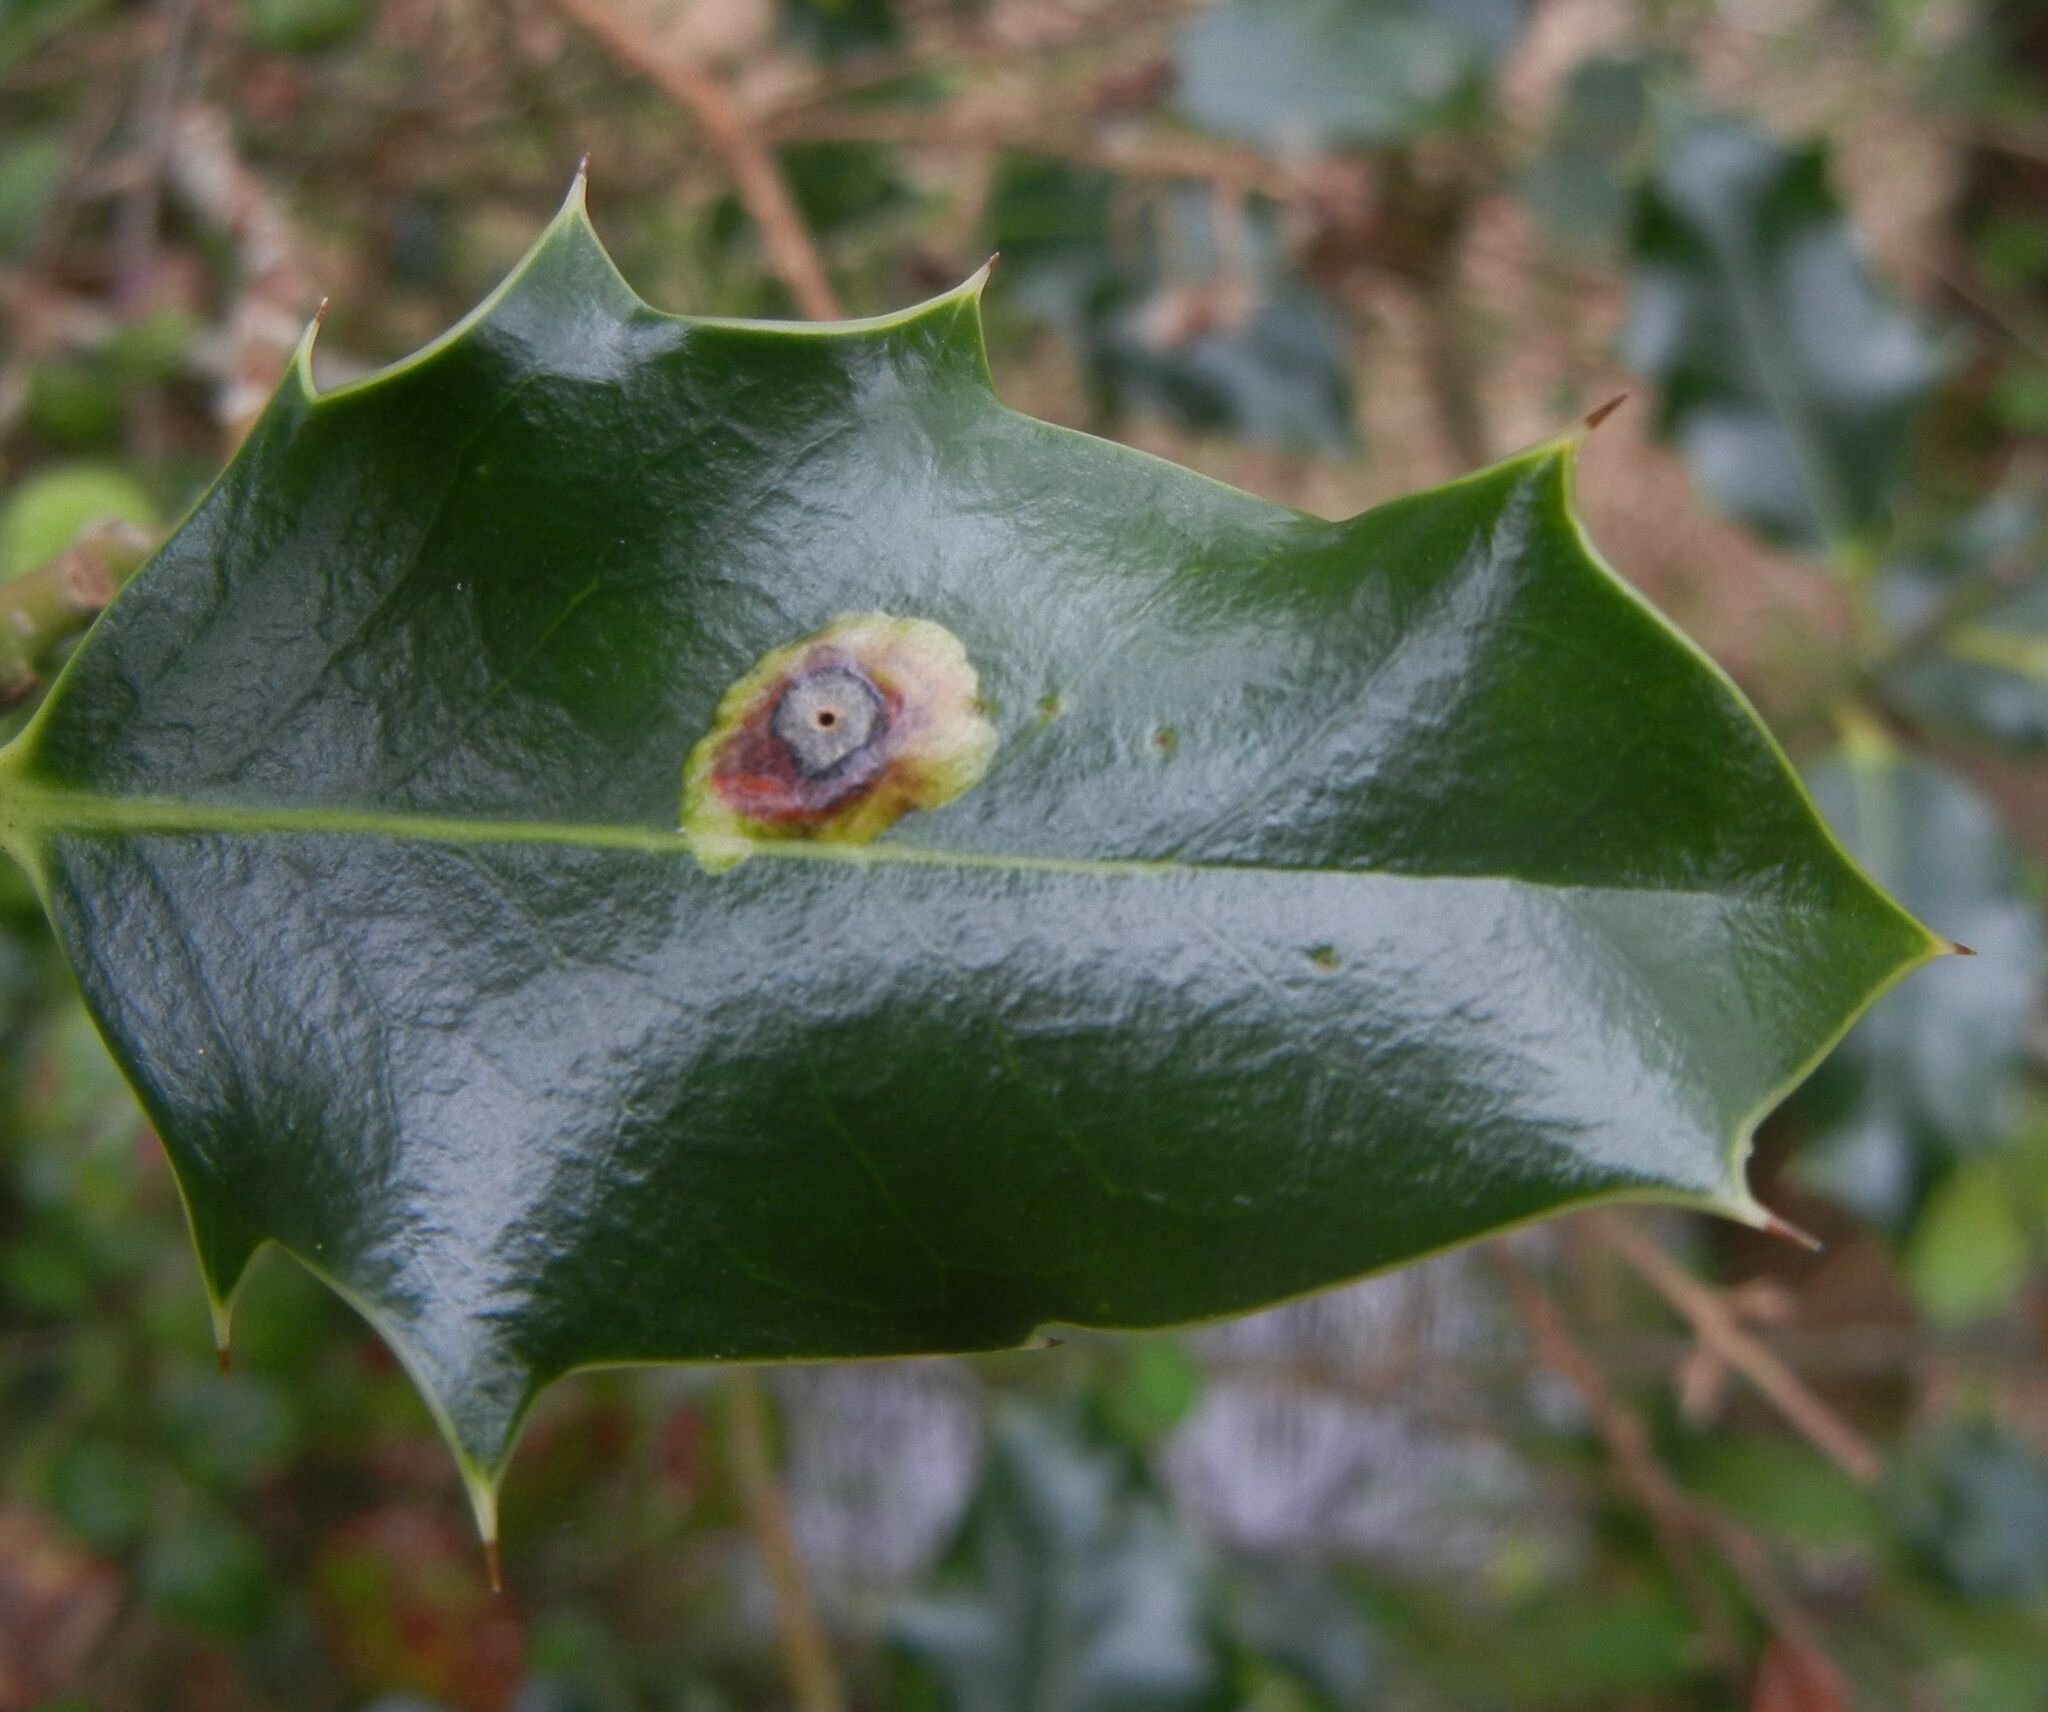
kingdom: Animalia
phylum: Arthropoda
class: Insecta
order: Diptera
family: Agromyzidae
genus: Phytomyza
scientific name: Phytomyza ilicis
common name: Holly leafminer
